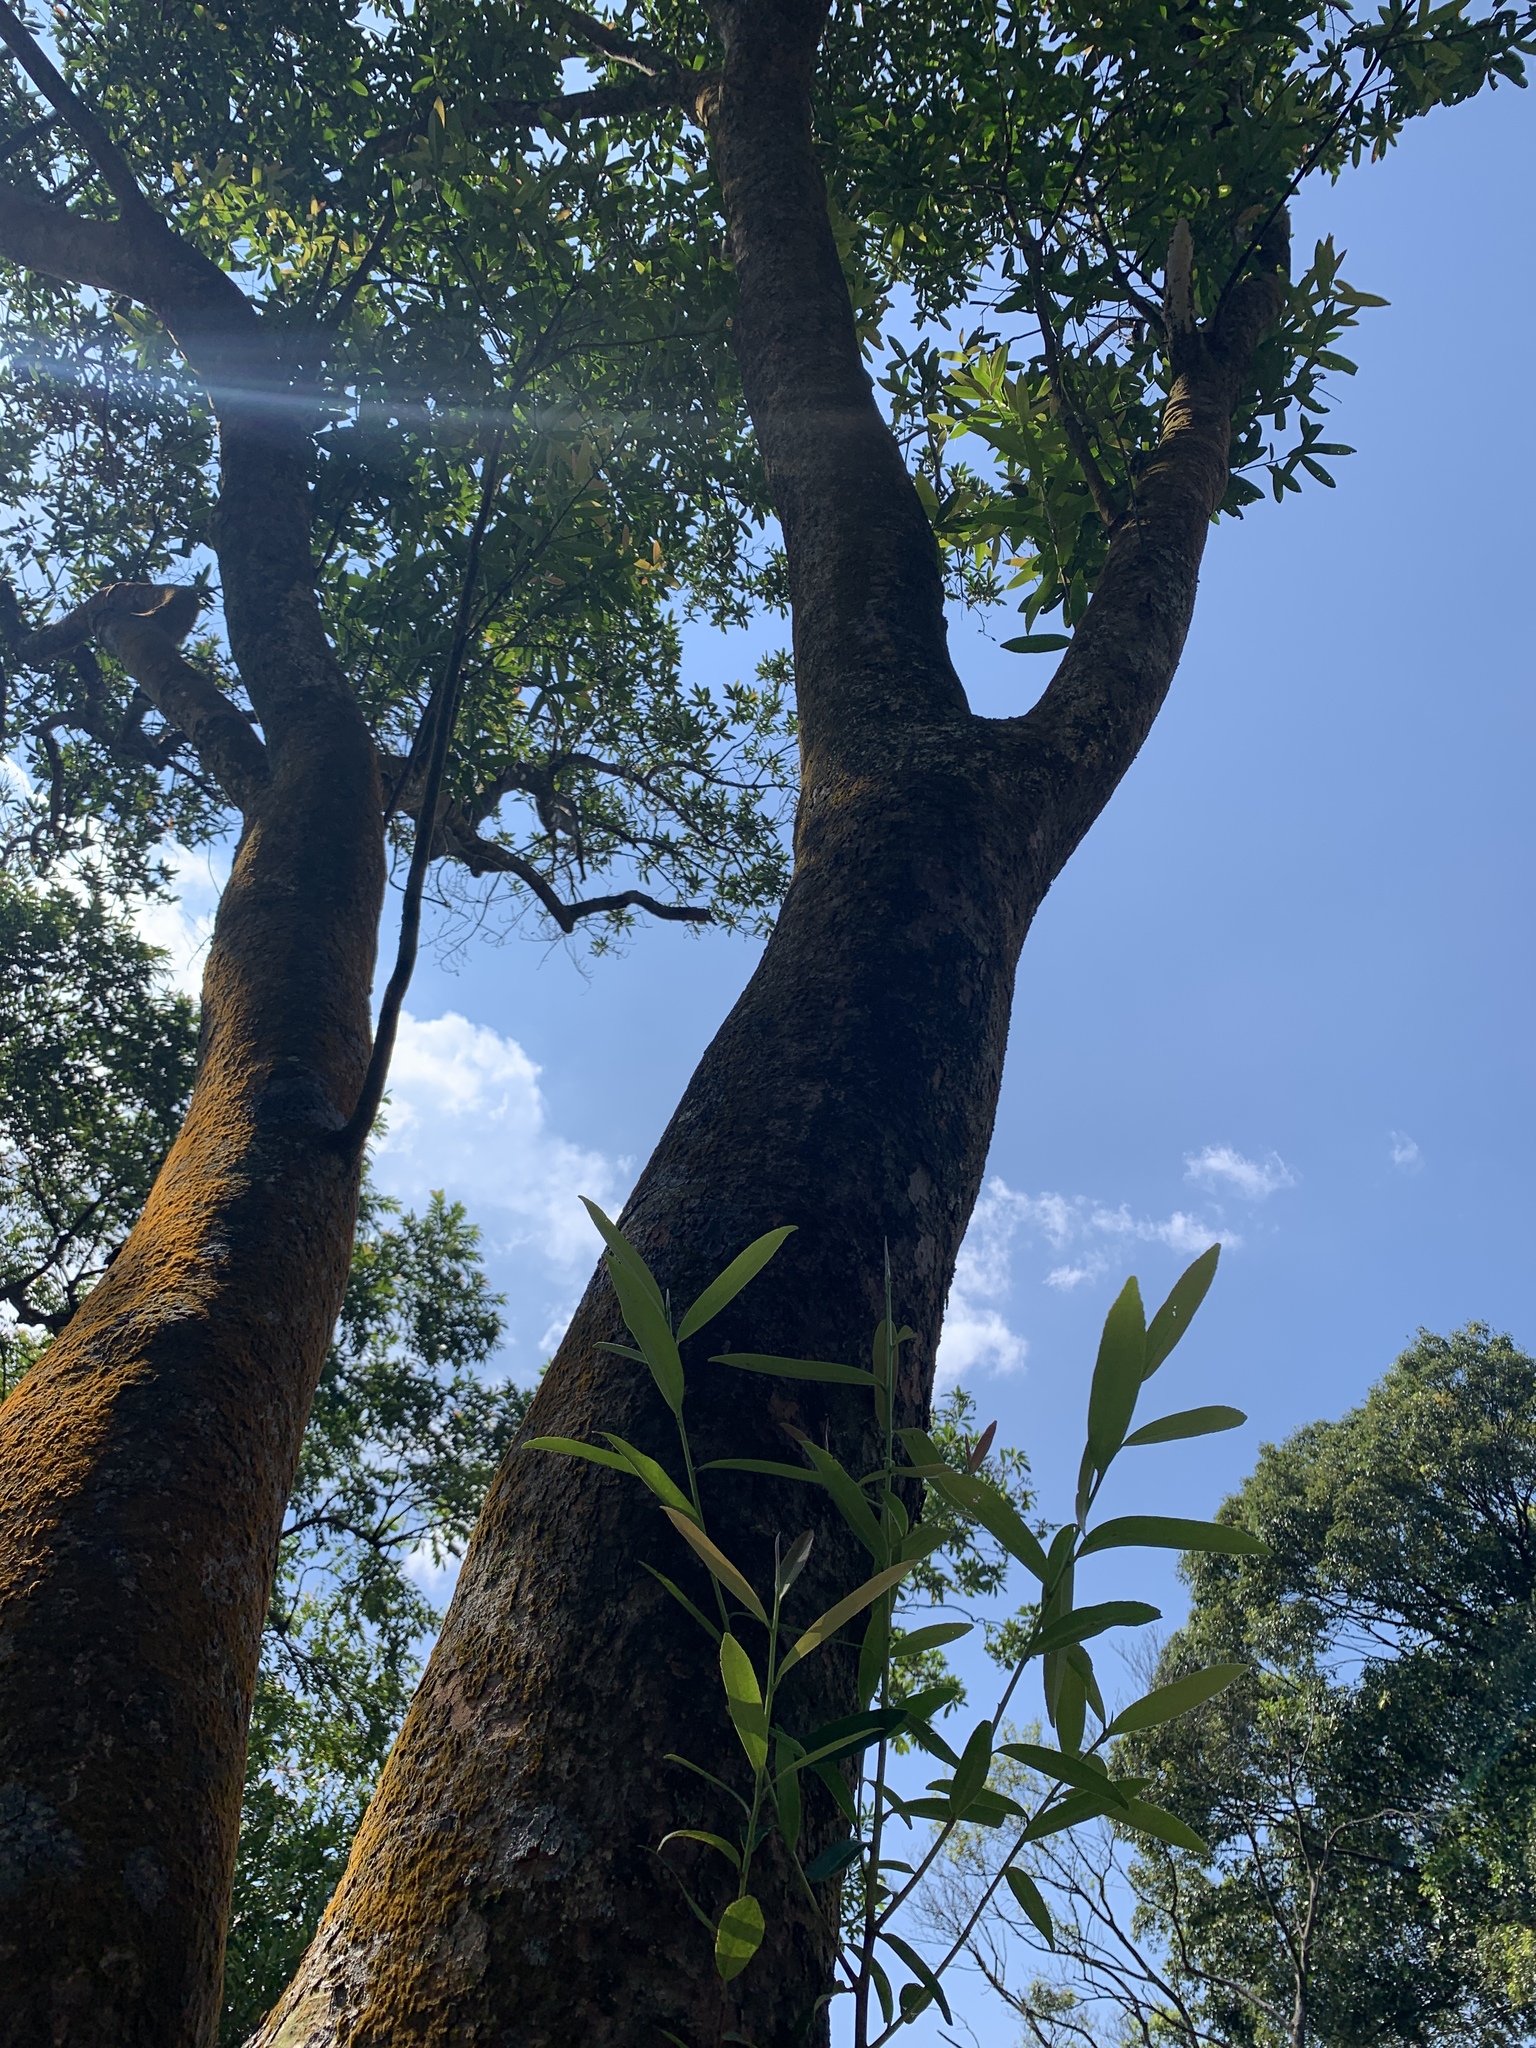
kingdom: Plantae
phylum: Tracheophyta
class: Magnoliopsida
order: Ericales
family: Theaceae
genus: Polyspora
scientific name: Polyspora axillaris
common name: Fried egg tree
